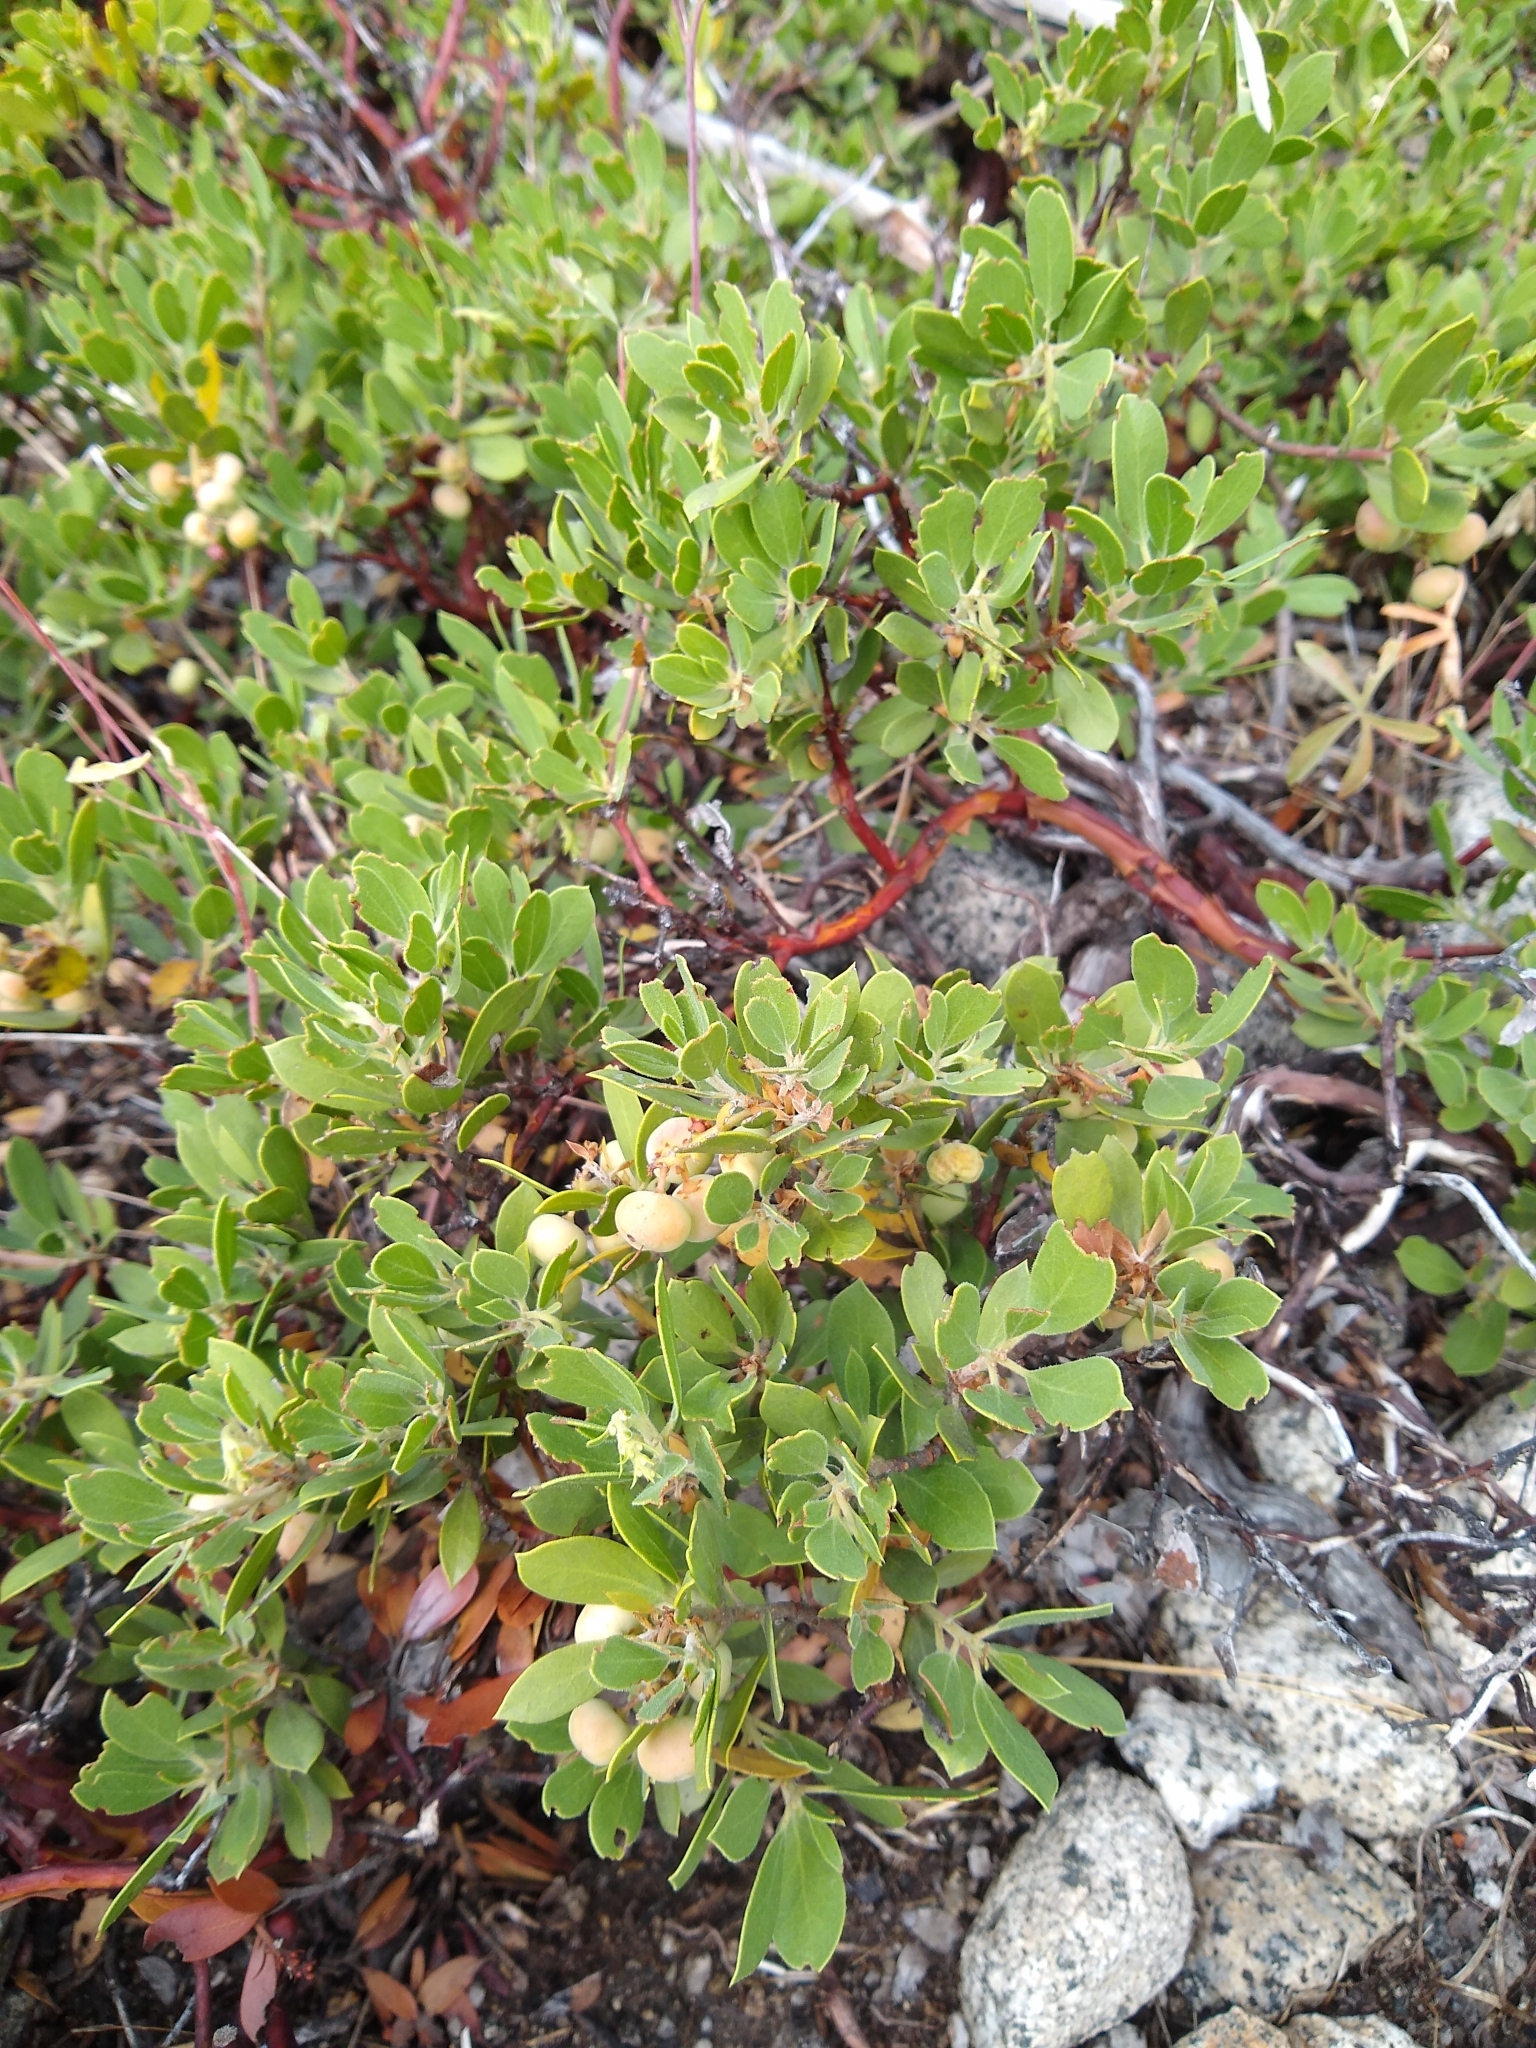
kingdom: Plantae
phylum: Tracheophyta
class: Magnoliopsida
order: Ericales
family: Ericaceae
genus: Arctostaphylos
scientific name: Arctostaphylos nevadensis
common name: Pinemat manzanita
